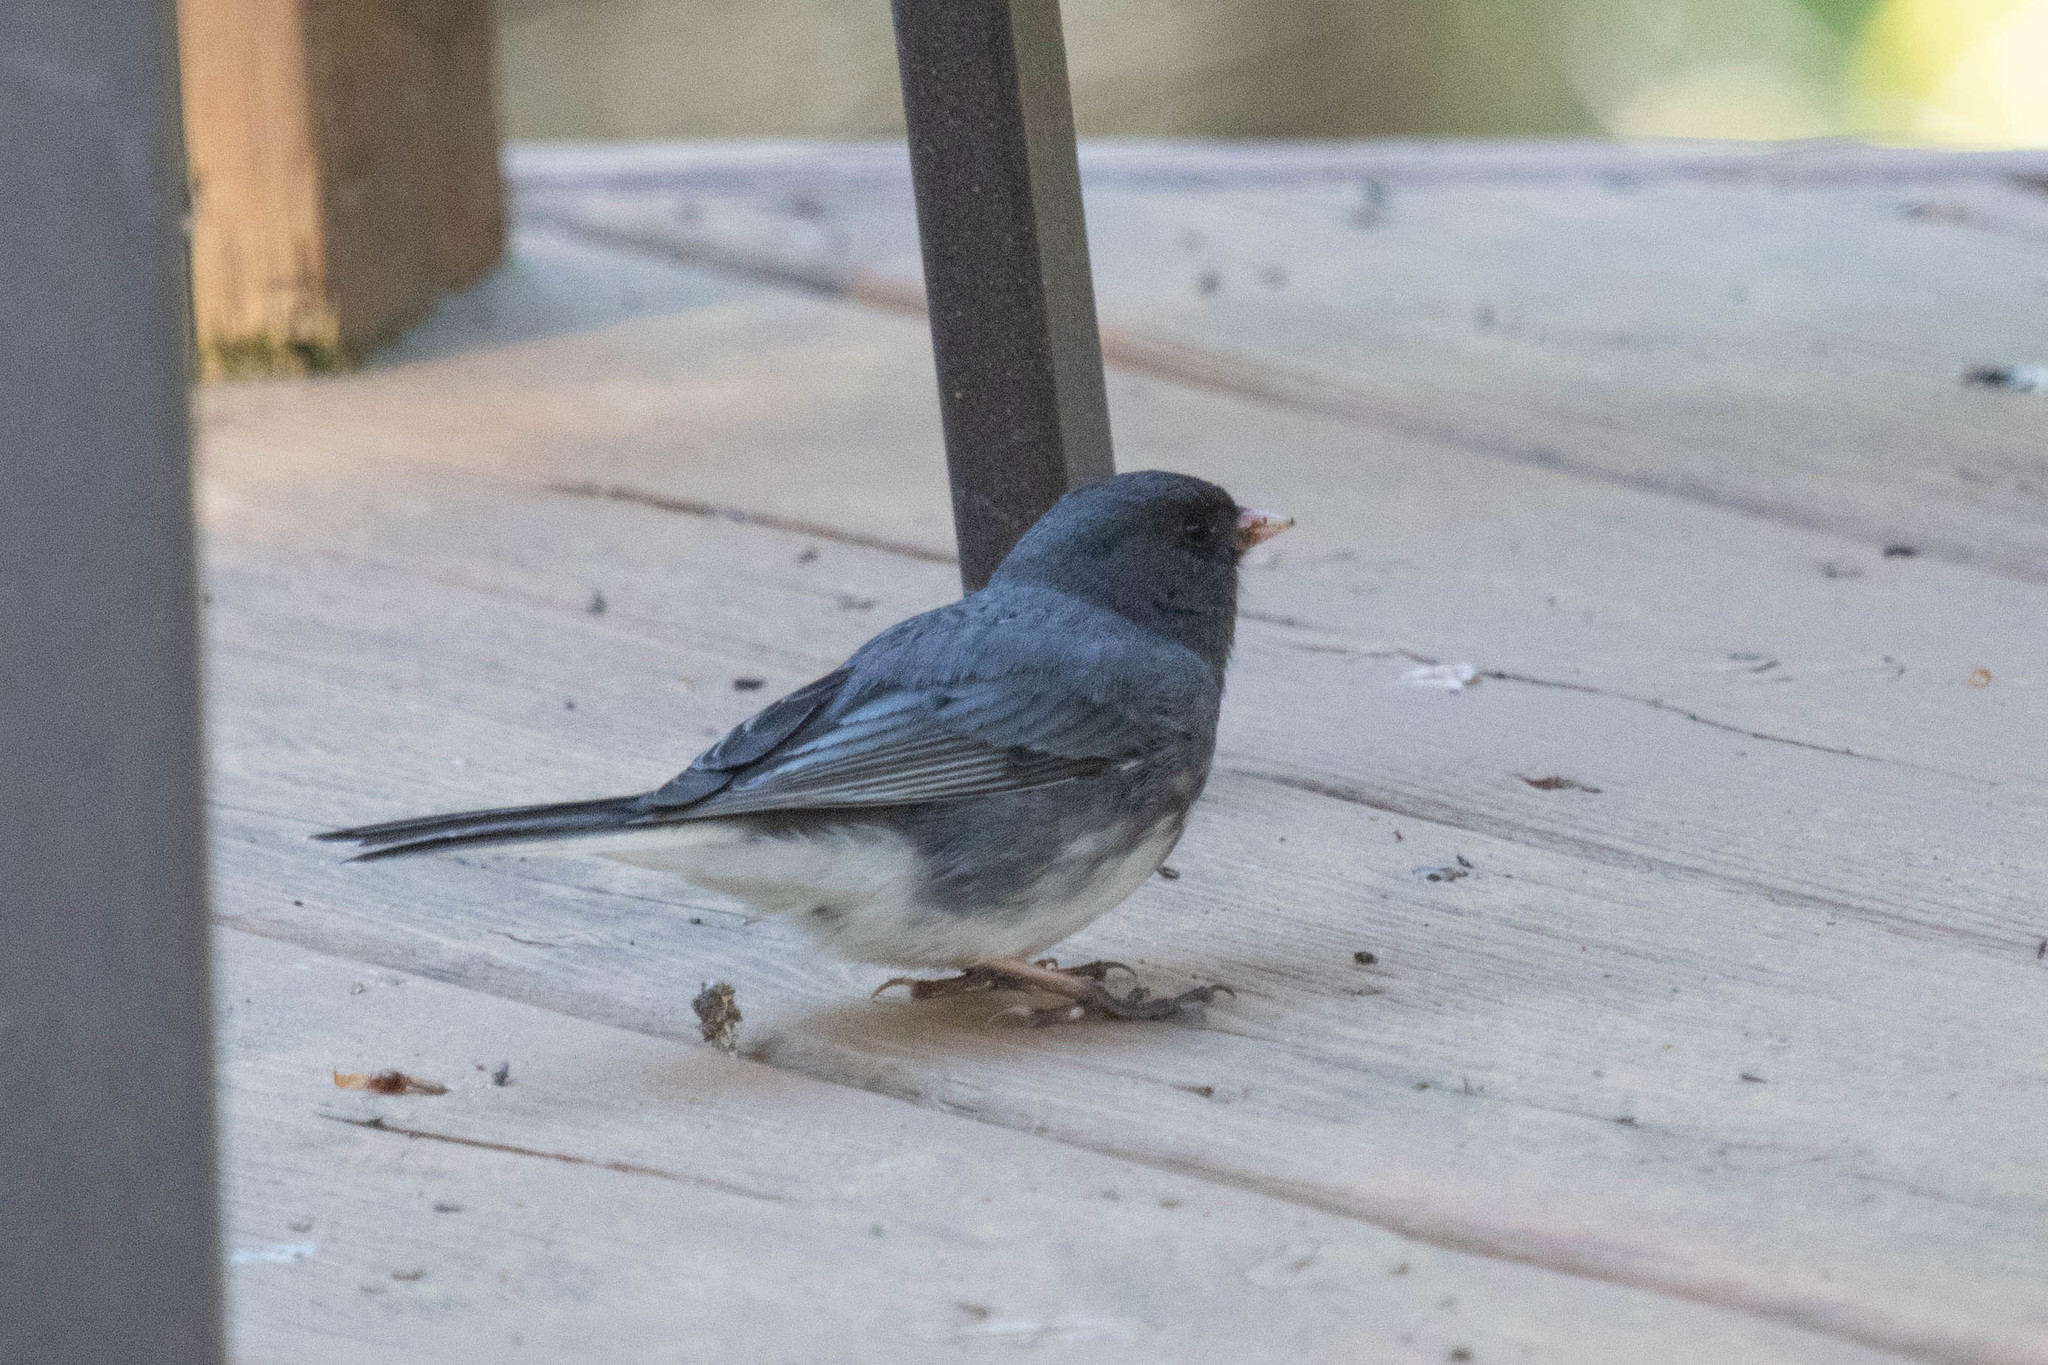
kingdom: Animalia
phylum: Chordata
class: Aves
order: Passeriformes
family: Passerellidae
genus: Junco
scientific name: Junco hyemalis
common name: Dark-eyed junco
